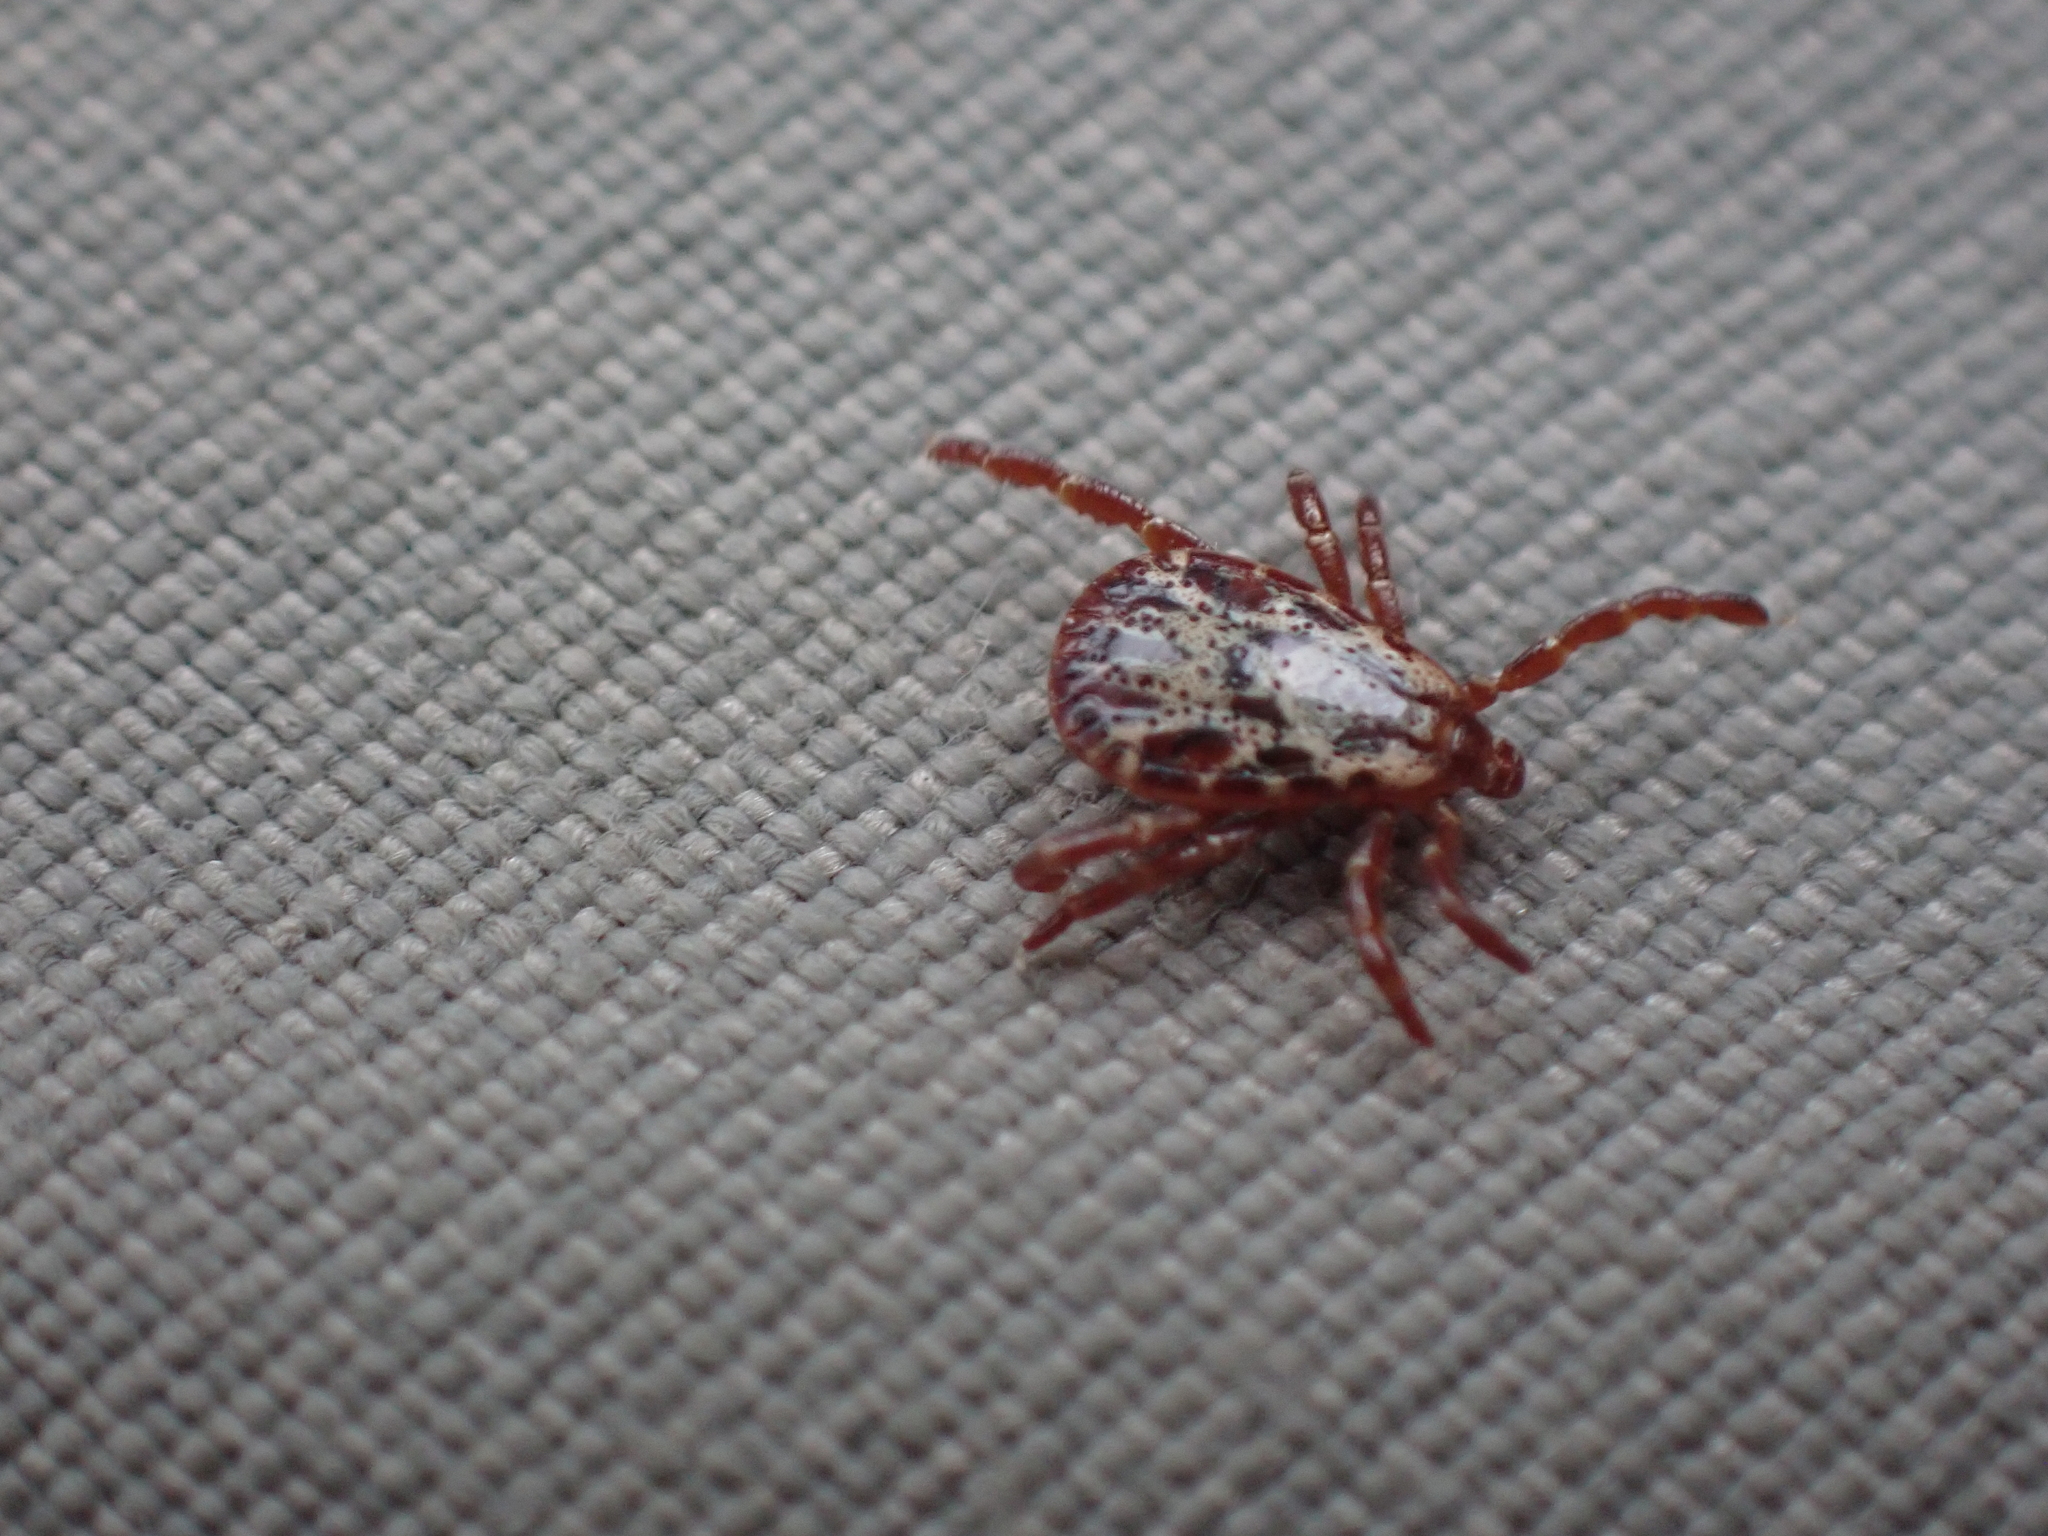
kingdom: Animalia
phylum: Arthropoda
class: Arachnida
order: Ixodida
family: Ixodidae
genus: Dermacentor
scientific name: Dermacentor andersoni
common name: Rocky mountain wood tick
